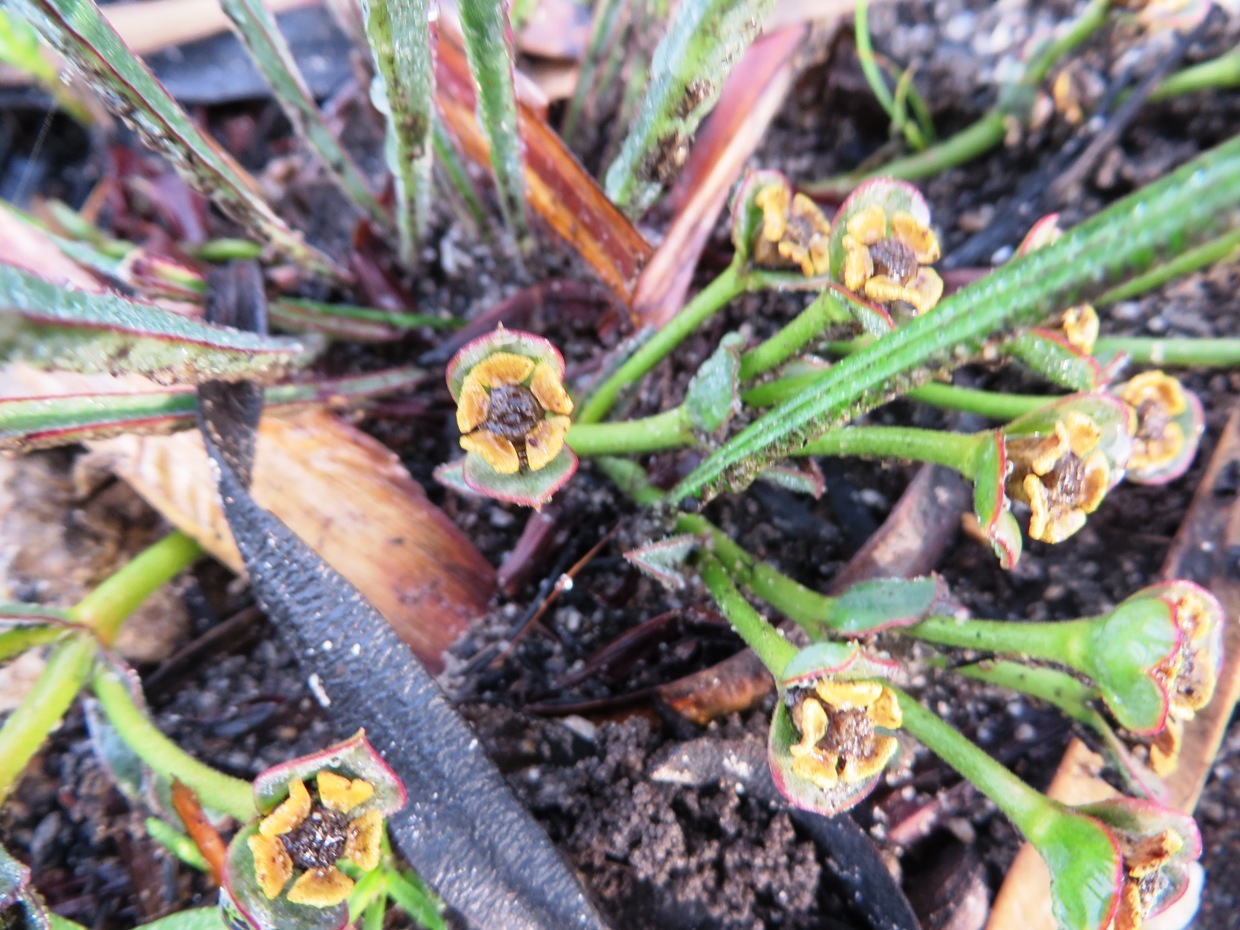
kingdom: Plantae
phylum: Tracheophyta
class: Magnoliopsida
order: Malpighiales
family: Euphorbiaceae
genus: Euphorbia
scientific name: Euphorbia silenifolia
